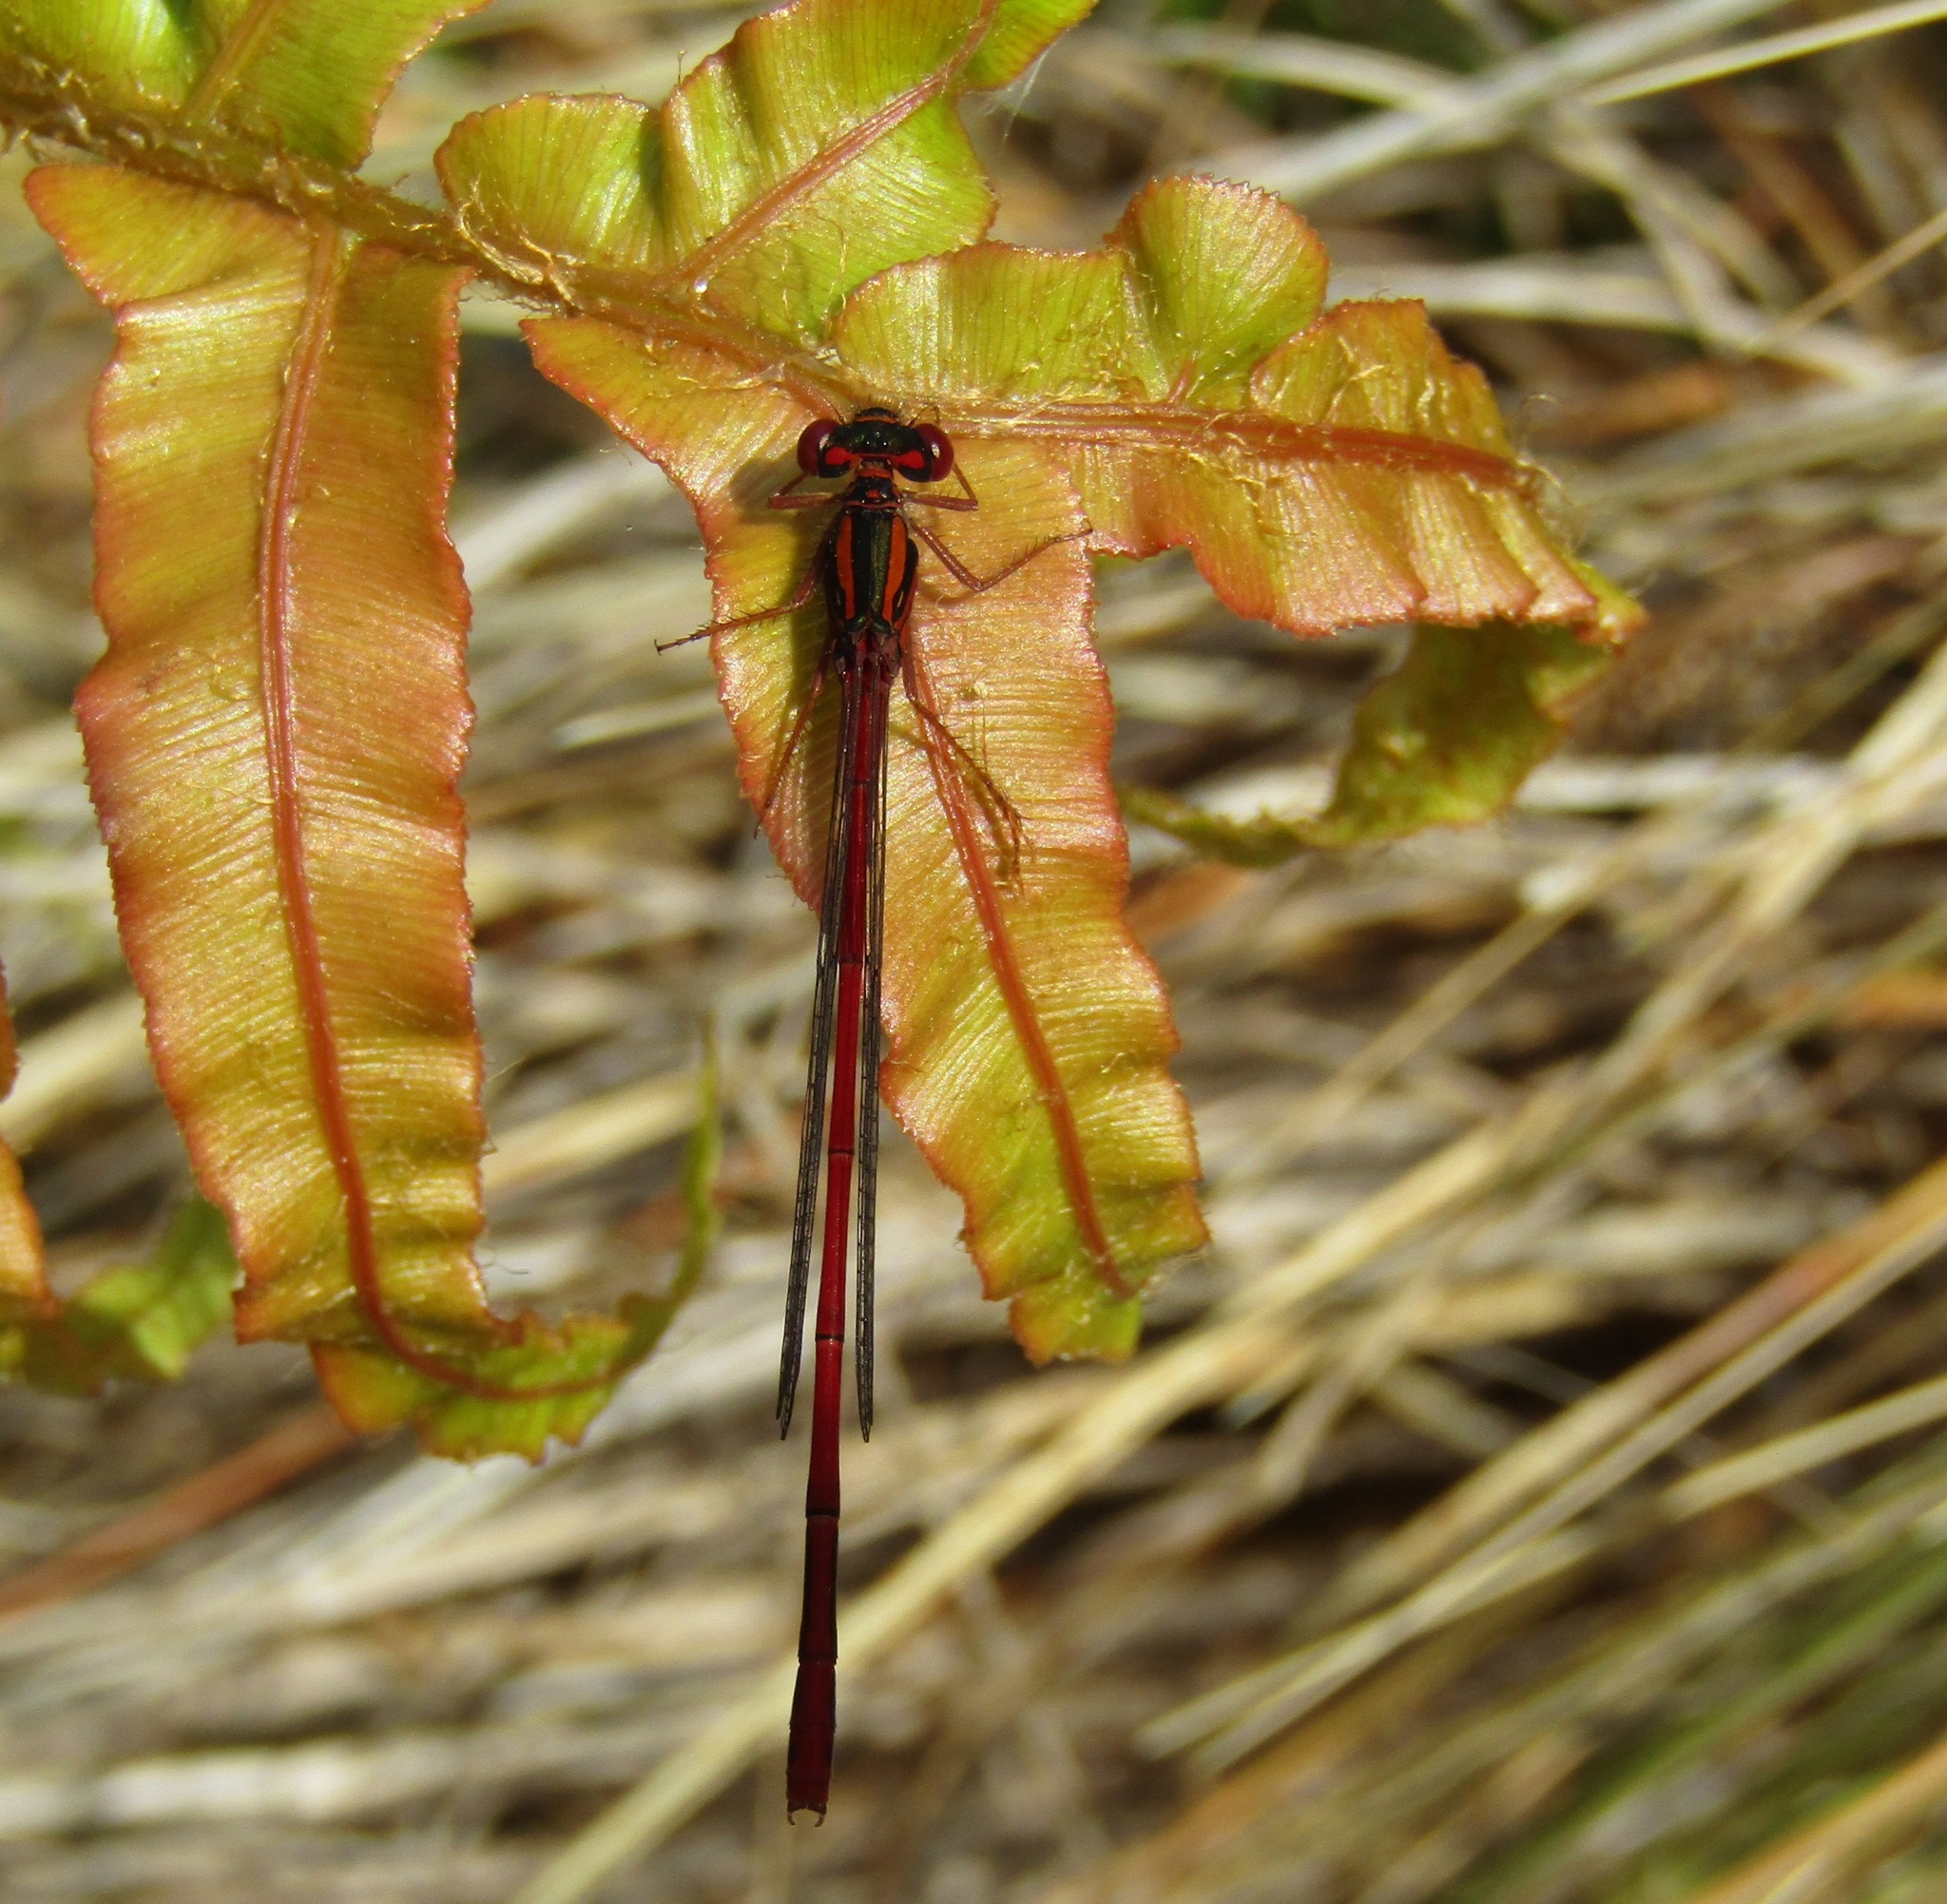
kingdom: Animalia
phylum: Arthropoda
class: Insecta
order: Odonata
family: Coenagrionidae
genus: Xanthocnemis
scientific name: Xanthocnemis zealandica
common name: Common redcoat damselfly
